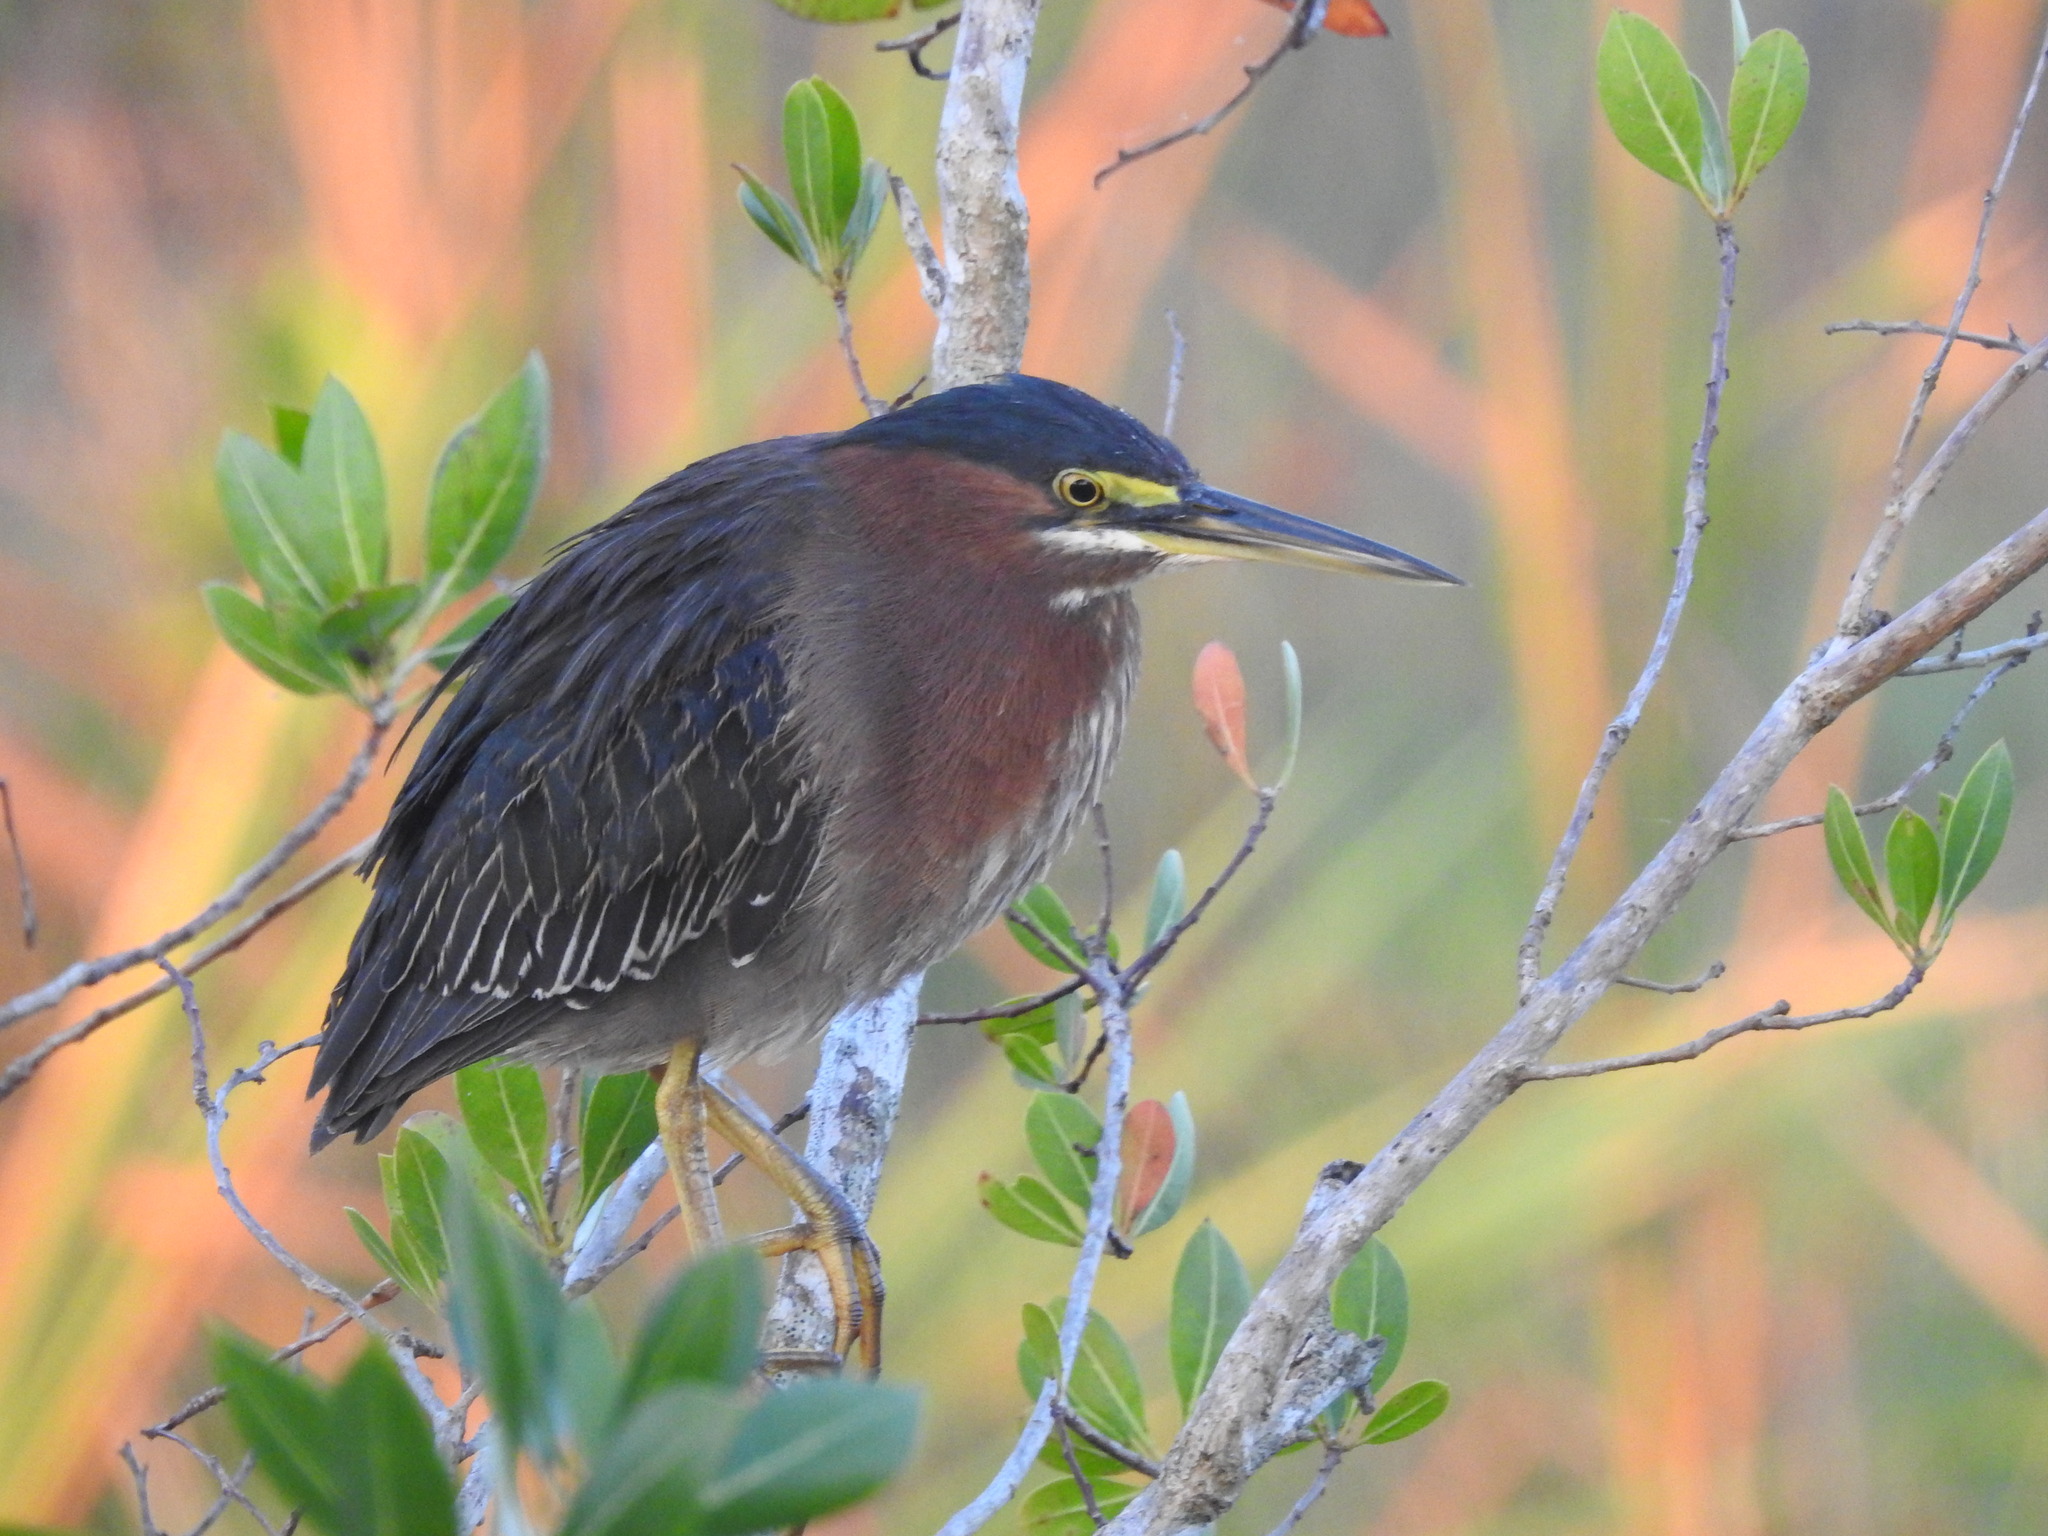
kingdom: Animalia
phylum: Chordata
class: Aves
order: Pelecaniformes
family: Ardeidae
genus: Butorides
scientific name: Butorides virescens
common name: Green heron
